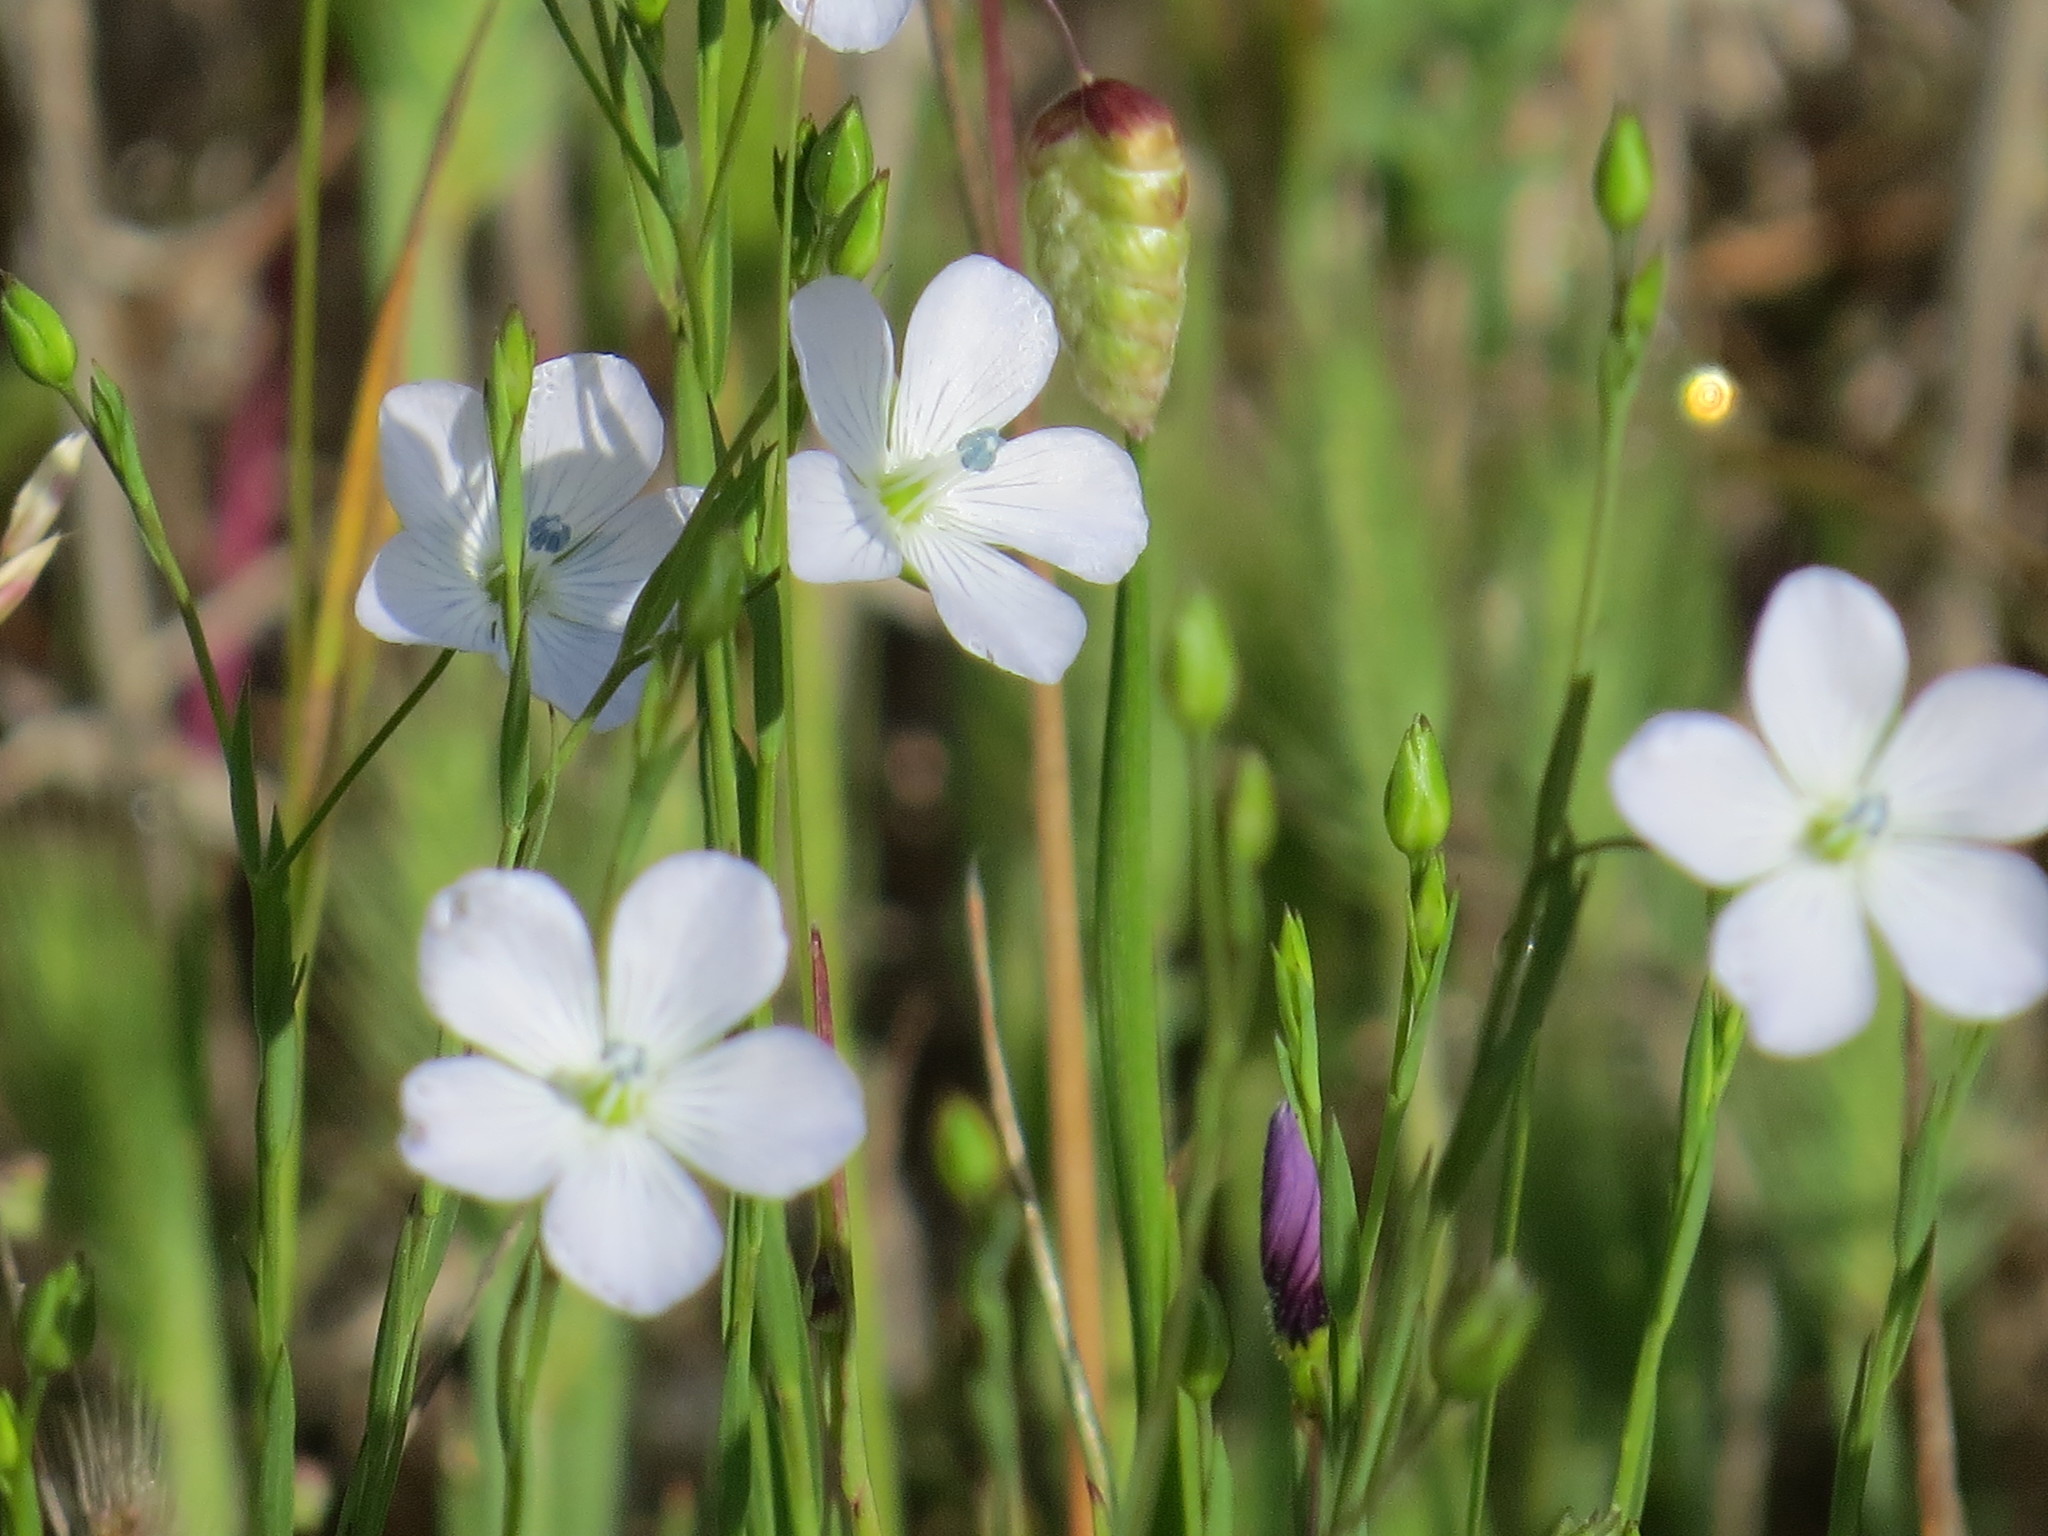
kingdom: Plantae
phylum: Tracheophyta
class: Magnoliopsida
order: Malpighiales
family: Linaceae
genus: Linum
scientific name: Linum bienne
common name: Pale flax
